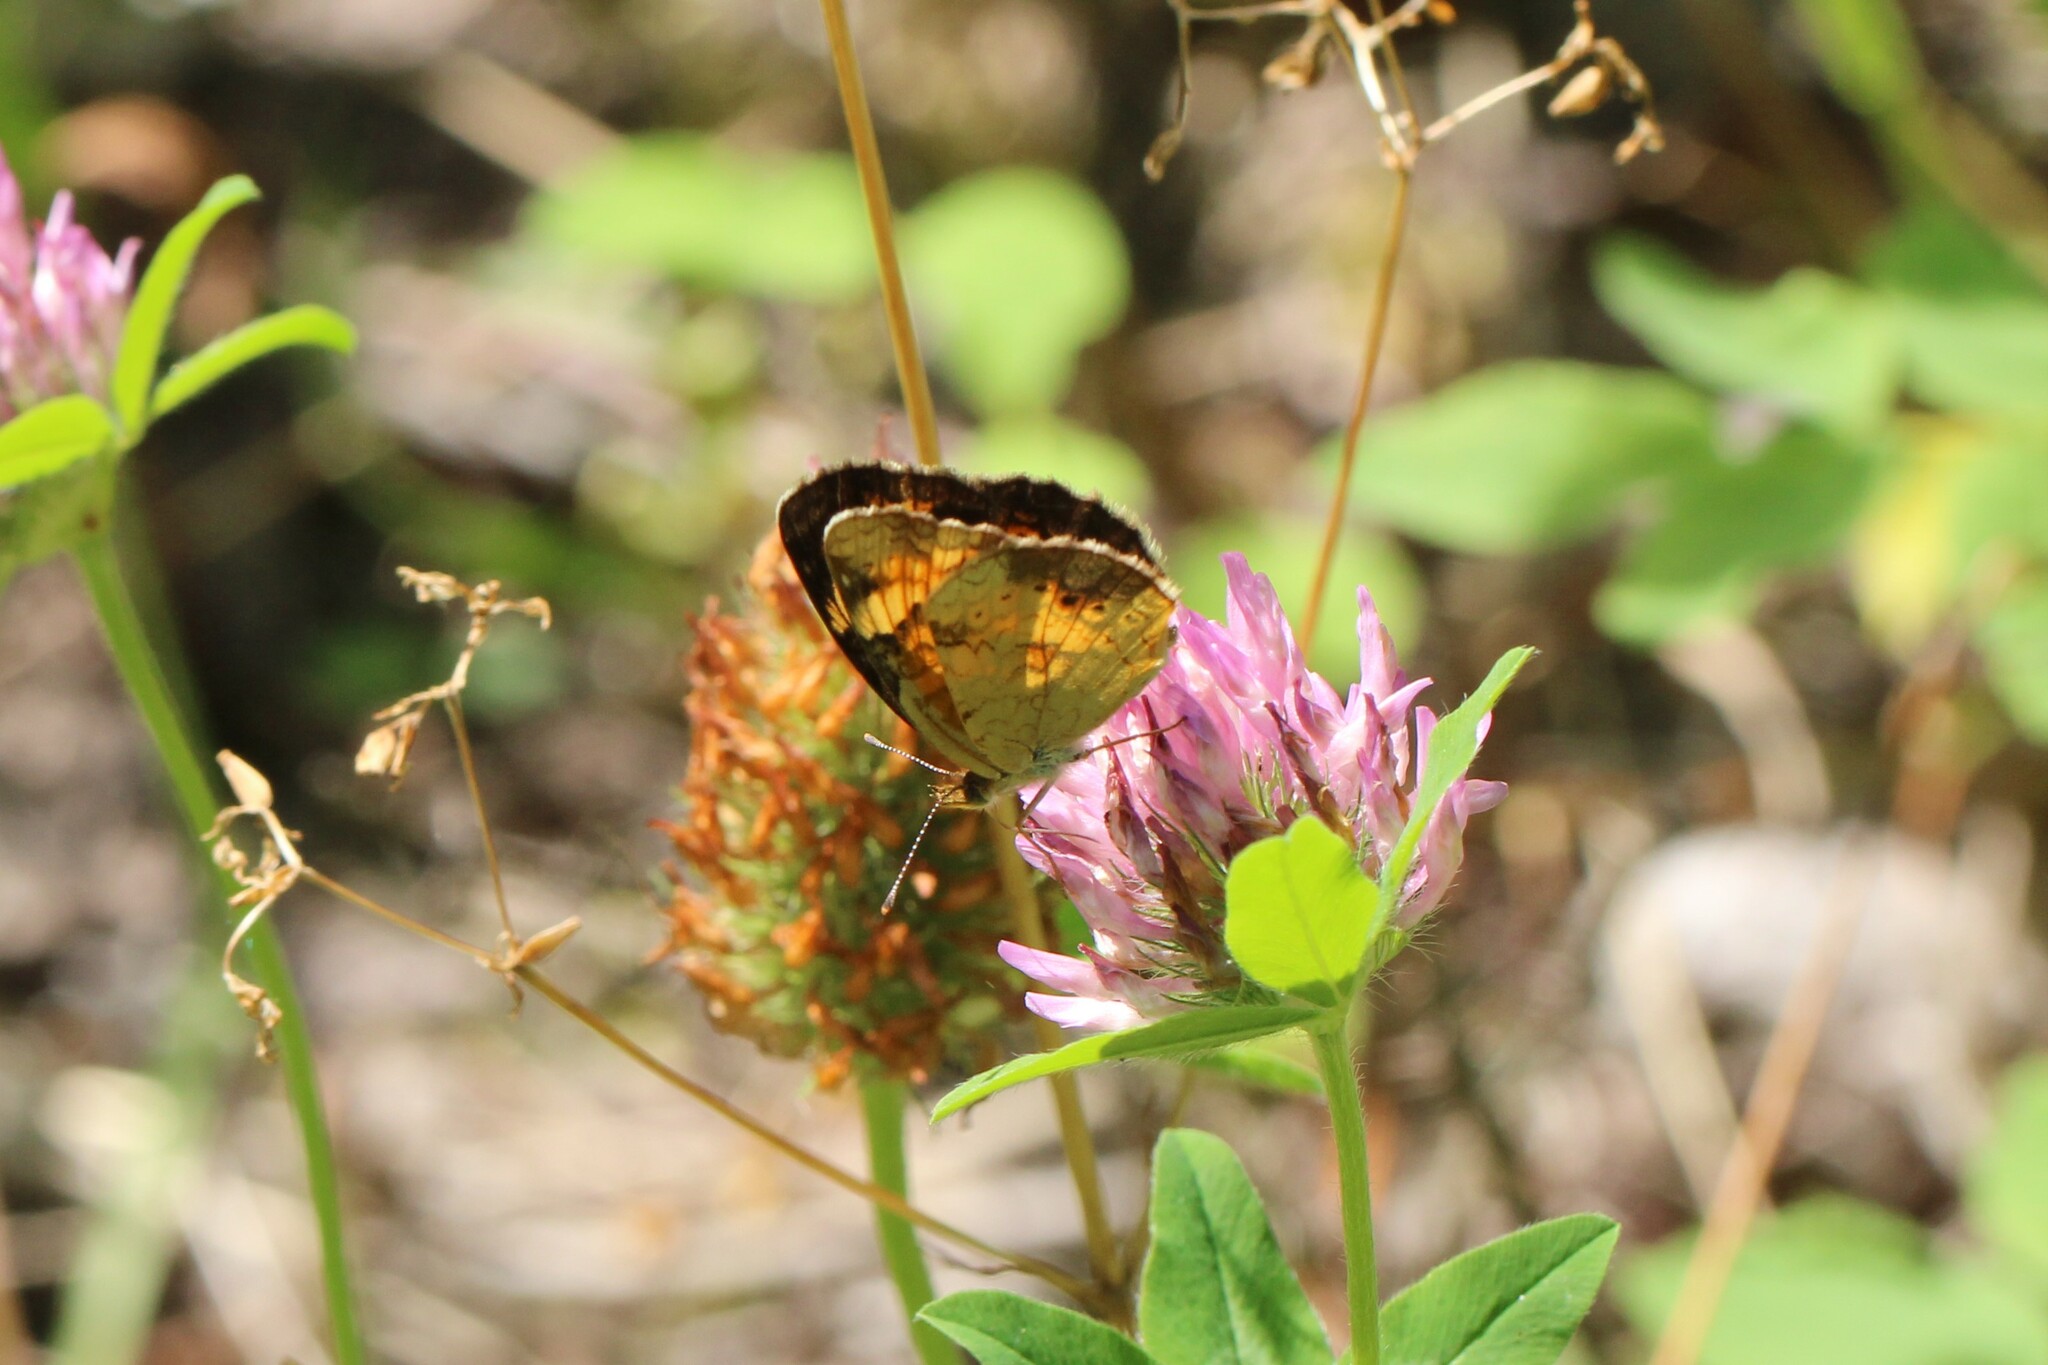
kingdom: Animalia
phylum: Arthropoda
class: Insecta
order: Lepidoptera
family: Nymphalidae
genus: Phyciodes
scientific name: Phyciodes tharos
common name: Pearl crescent
